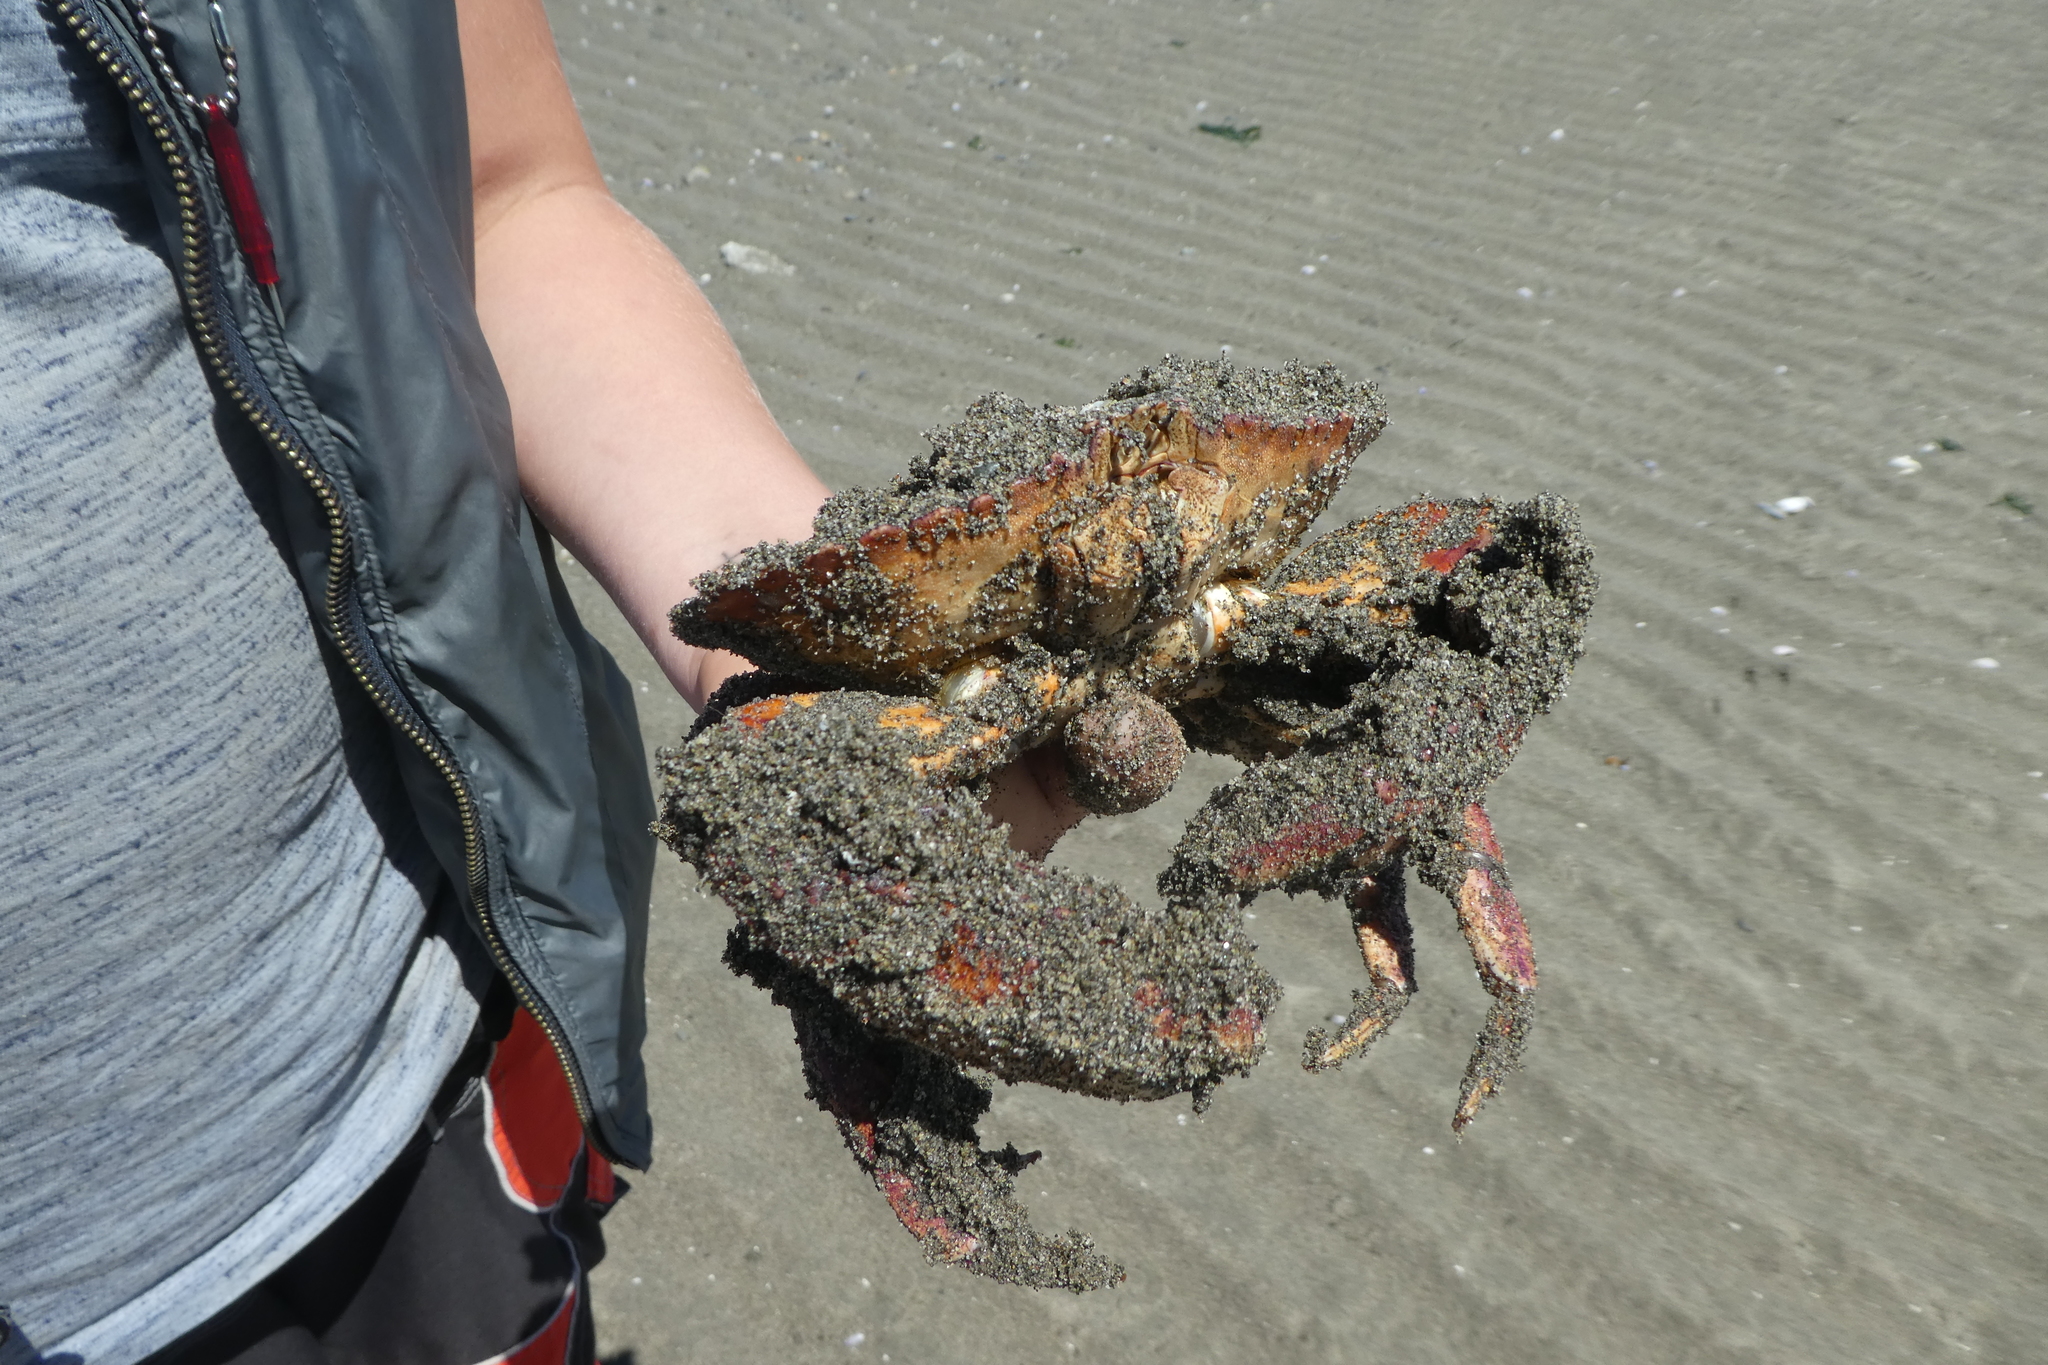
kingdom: Animalia
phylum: Arthropoda
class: Malacostraca
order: Decapoda
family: Cancridae
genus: Cancer
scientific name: Cancer productus
